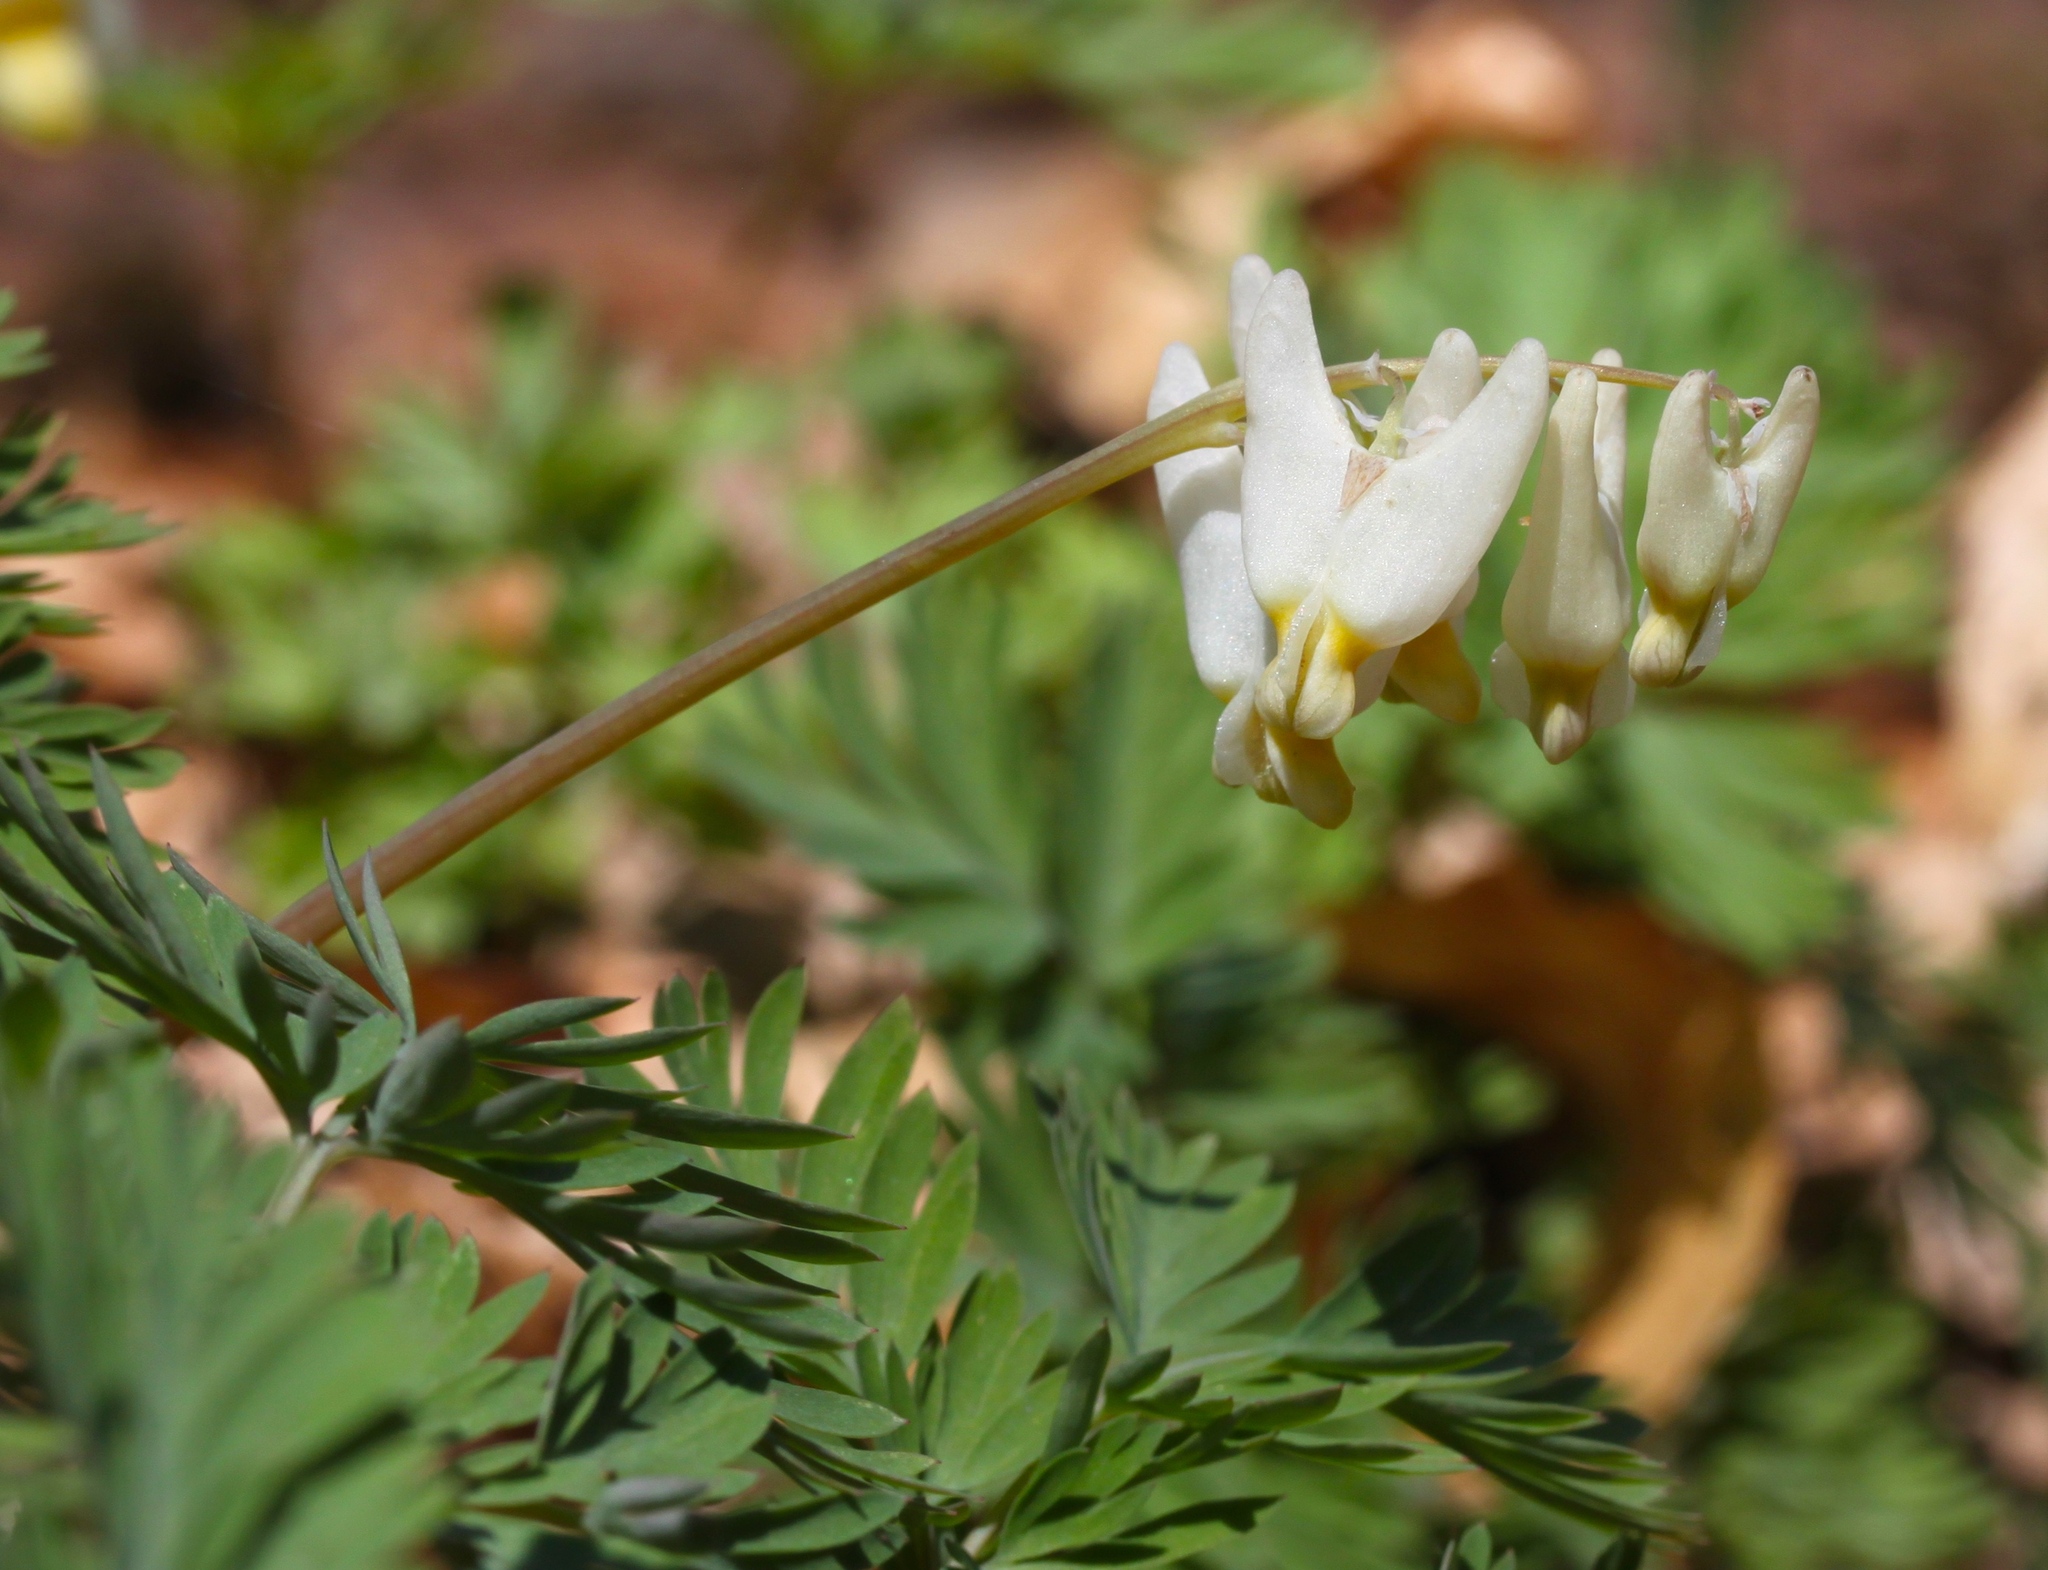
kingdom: Plantae
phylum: Tracheophyta
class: Magnoliopsida
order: Ranunculales
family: Papaveraceae
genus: Dicentra
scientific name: Dicentra cucullaria
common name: Dutchman's breeches
